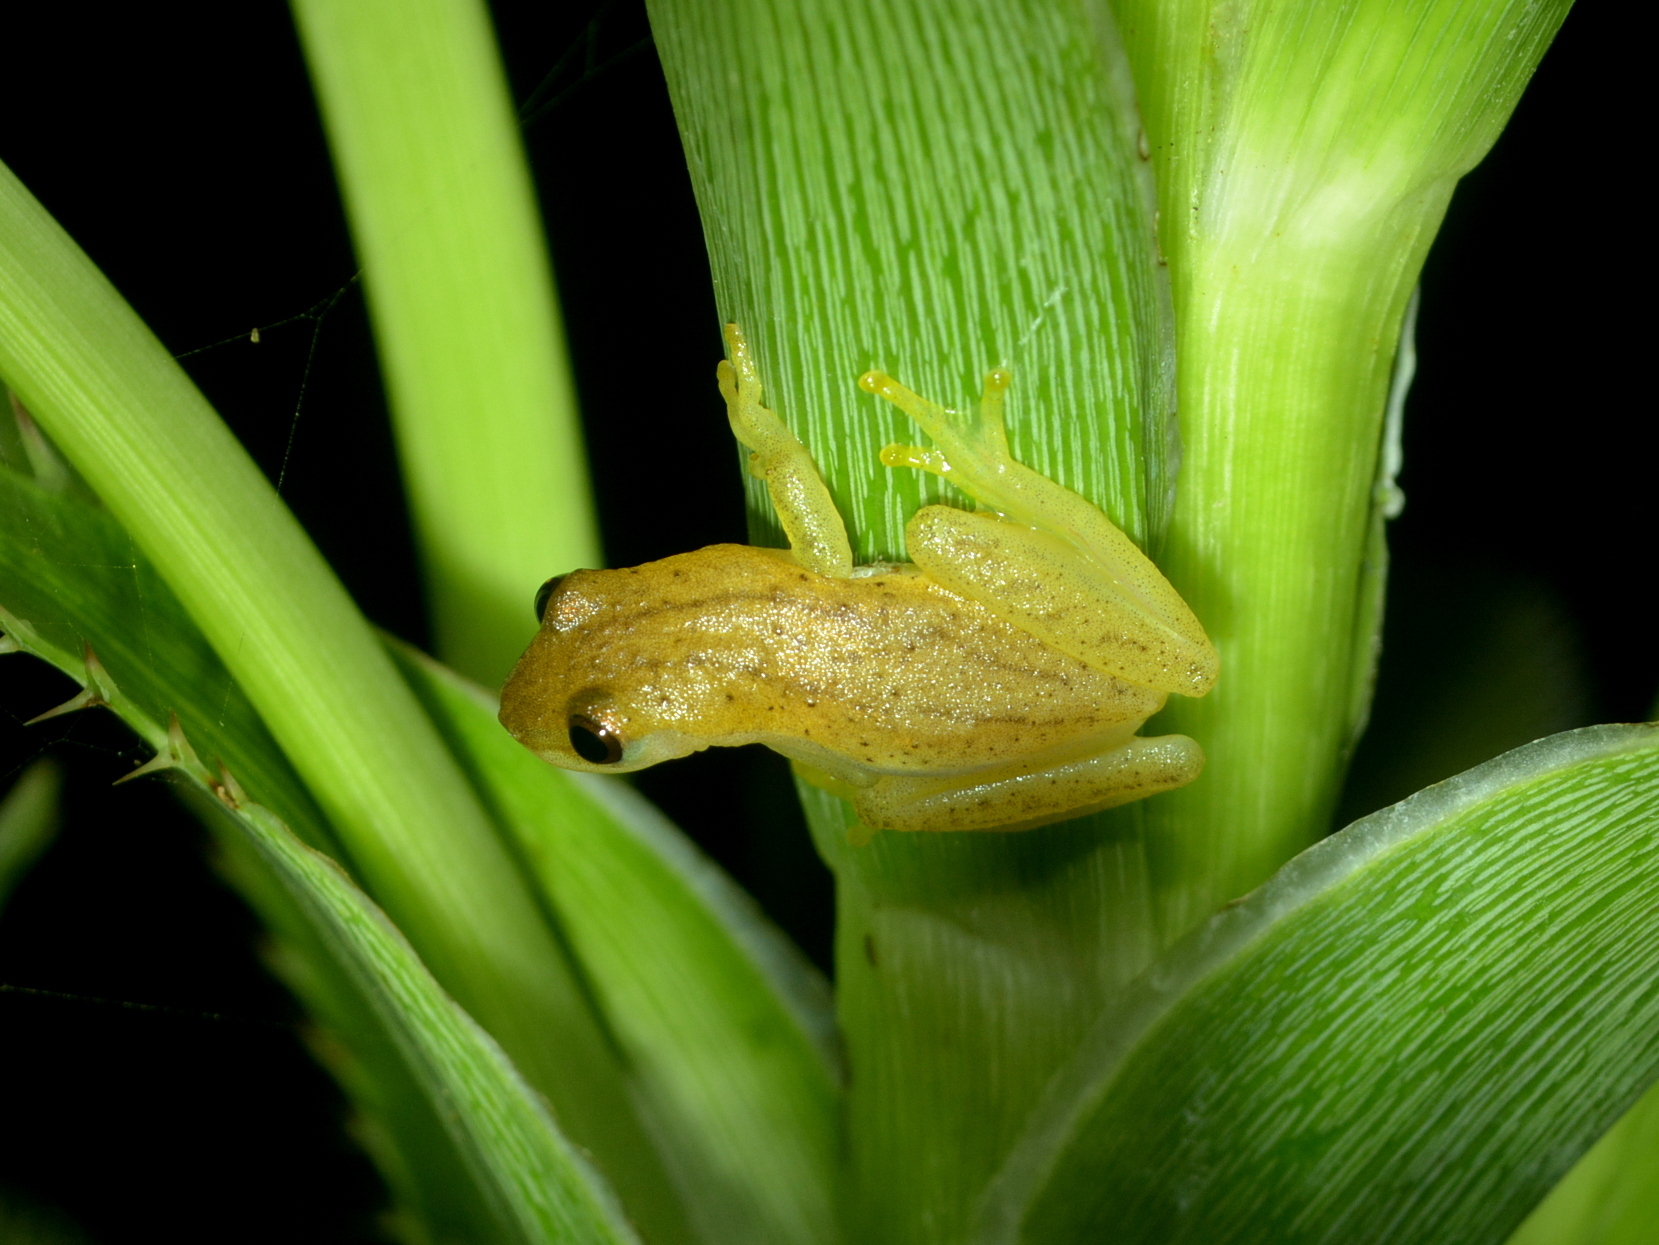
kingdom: Animalia
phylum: Chordata
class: Amphibia
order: Anura
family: Hylidae
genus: Dendropsophus
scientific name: Dendropsophus sanborni
